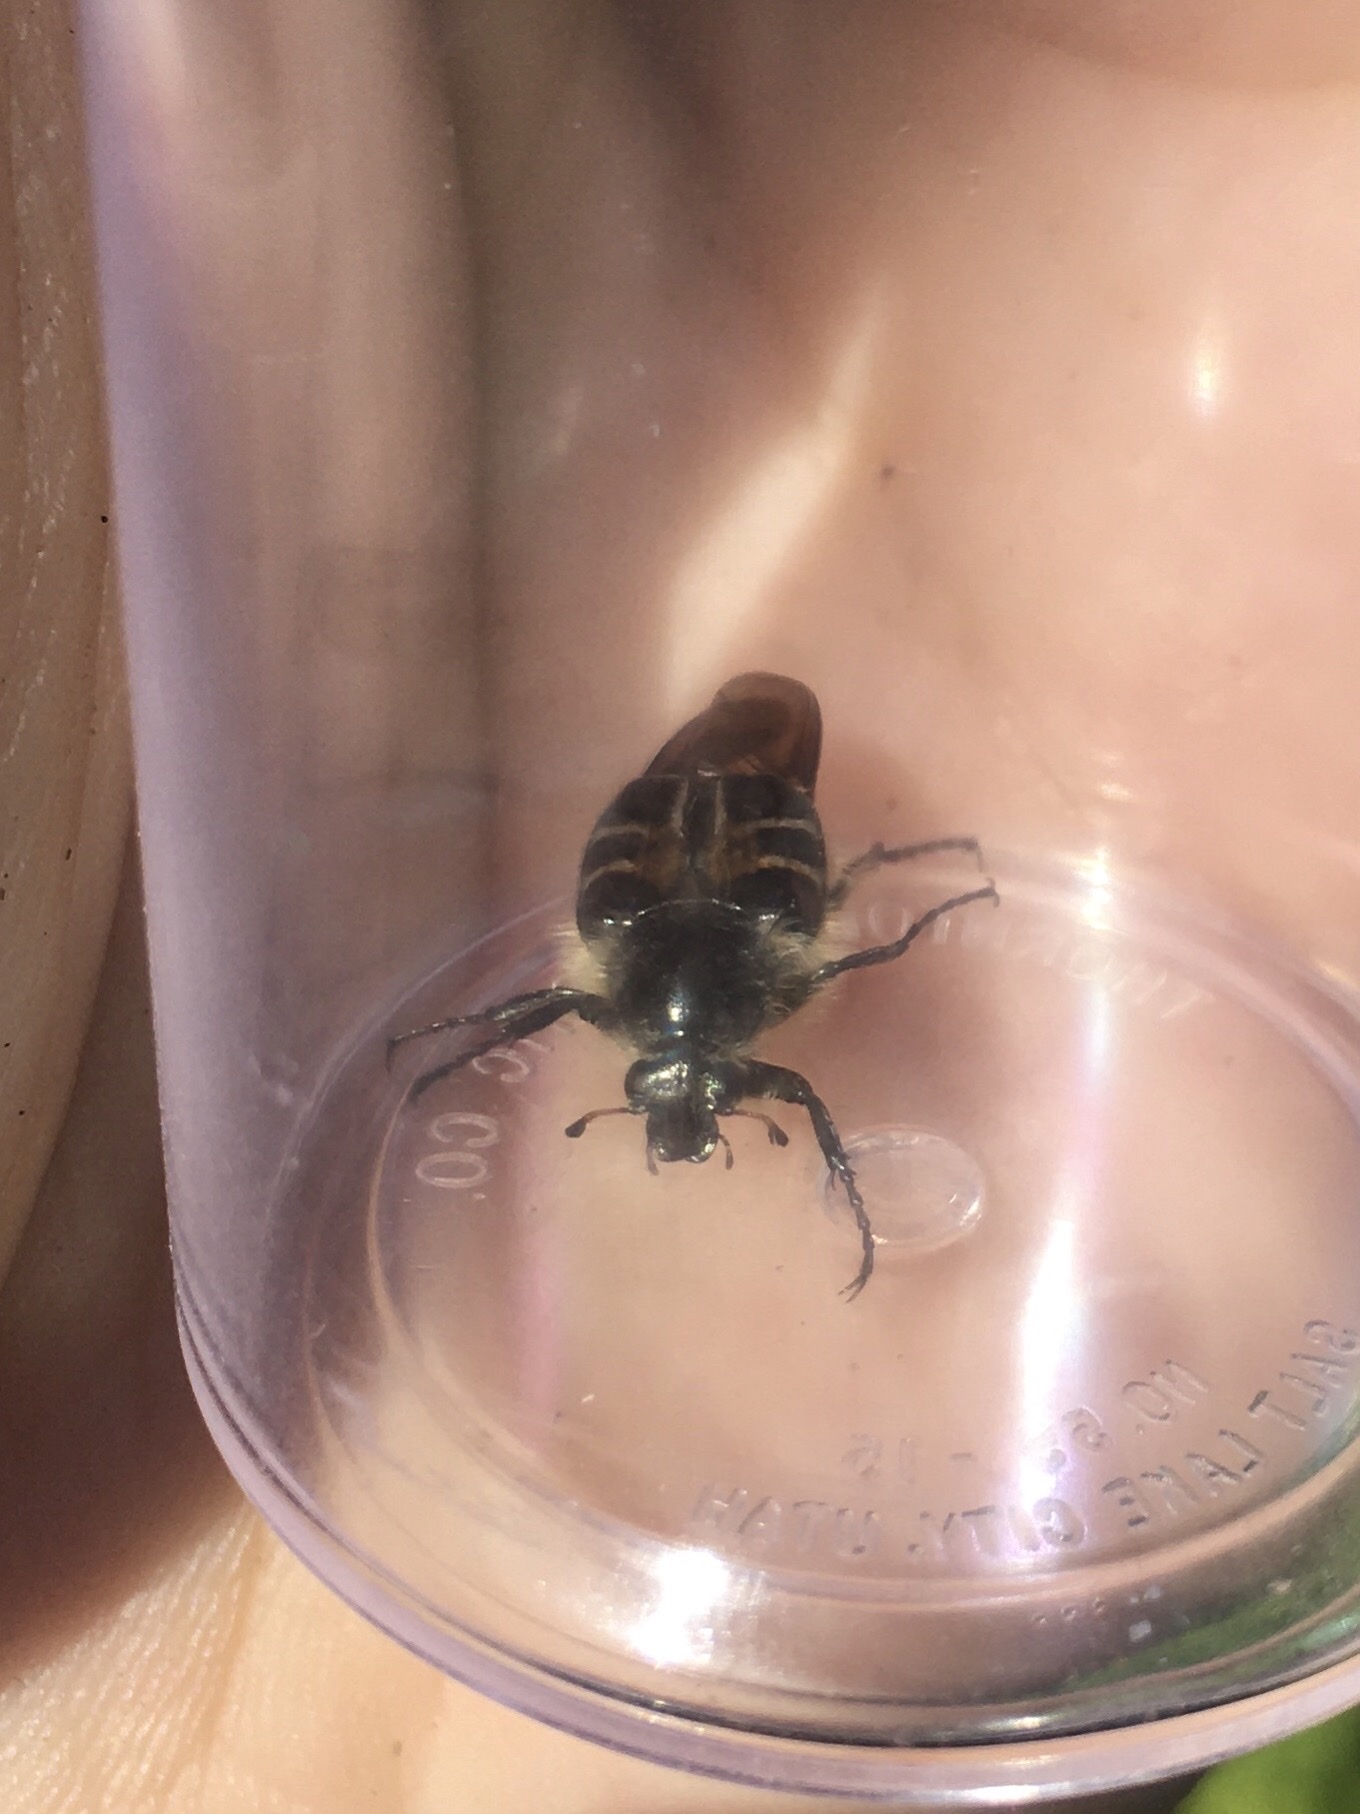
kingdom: Animalia
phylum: Arthropoda
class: Insecta
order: Coleoptera
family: Scarabaeidae
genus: Trichiotinus
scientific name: Trichiotinus assimilis
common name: Bee-mimic beetle
